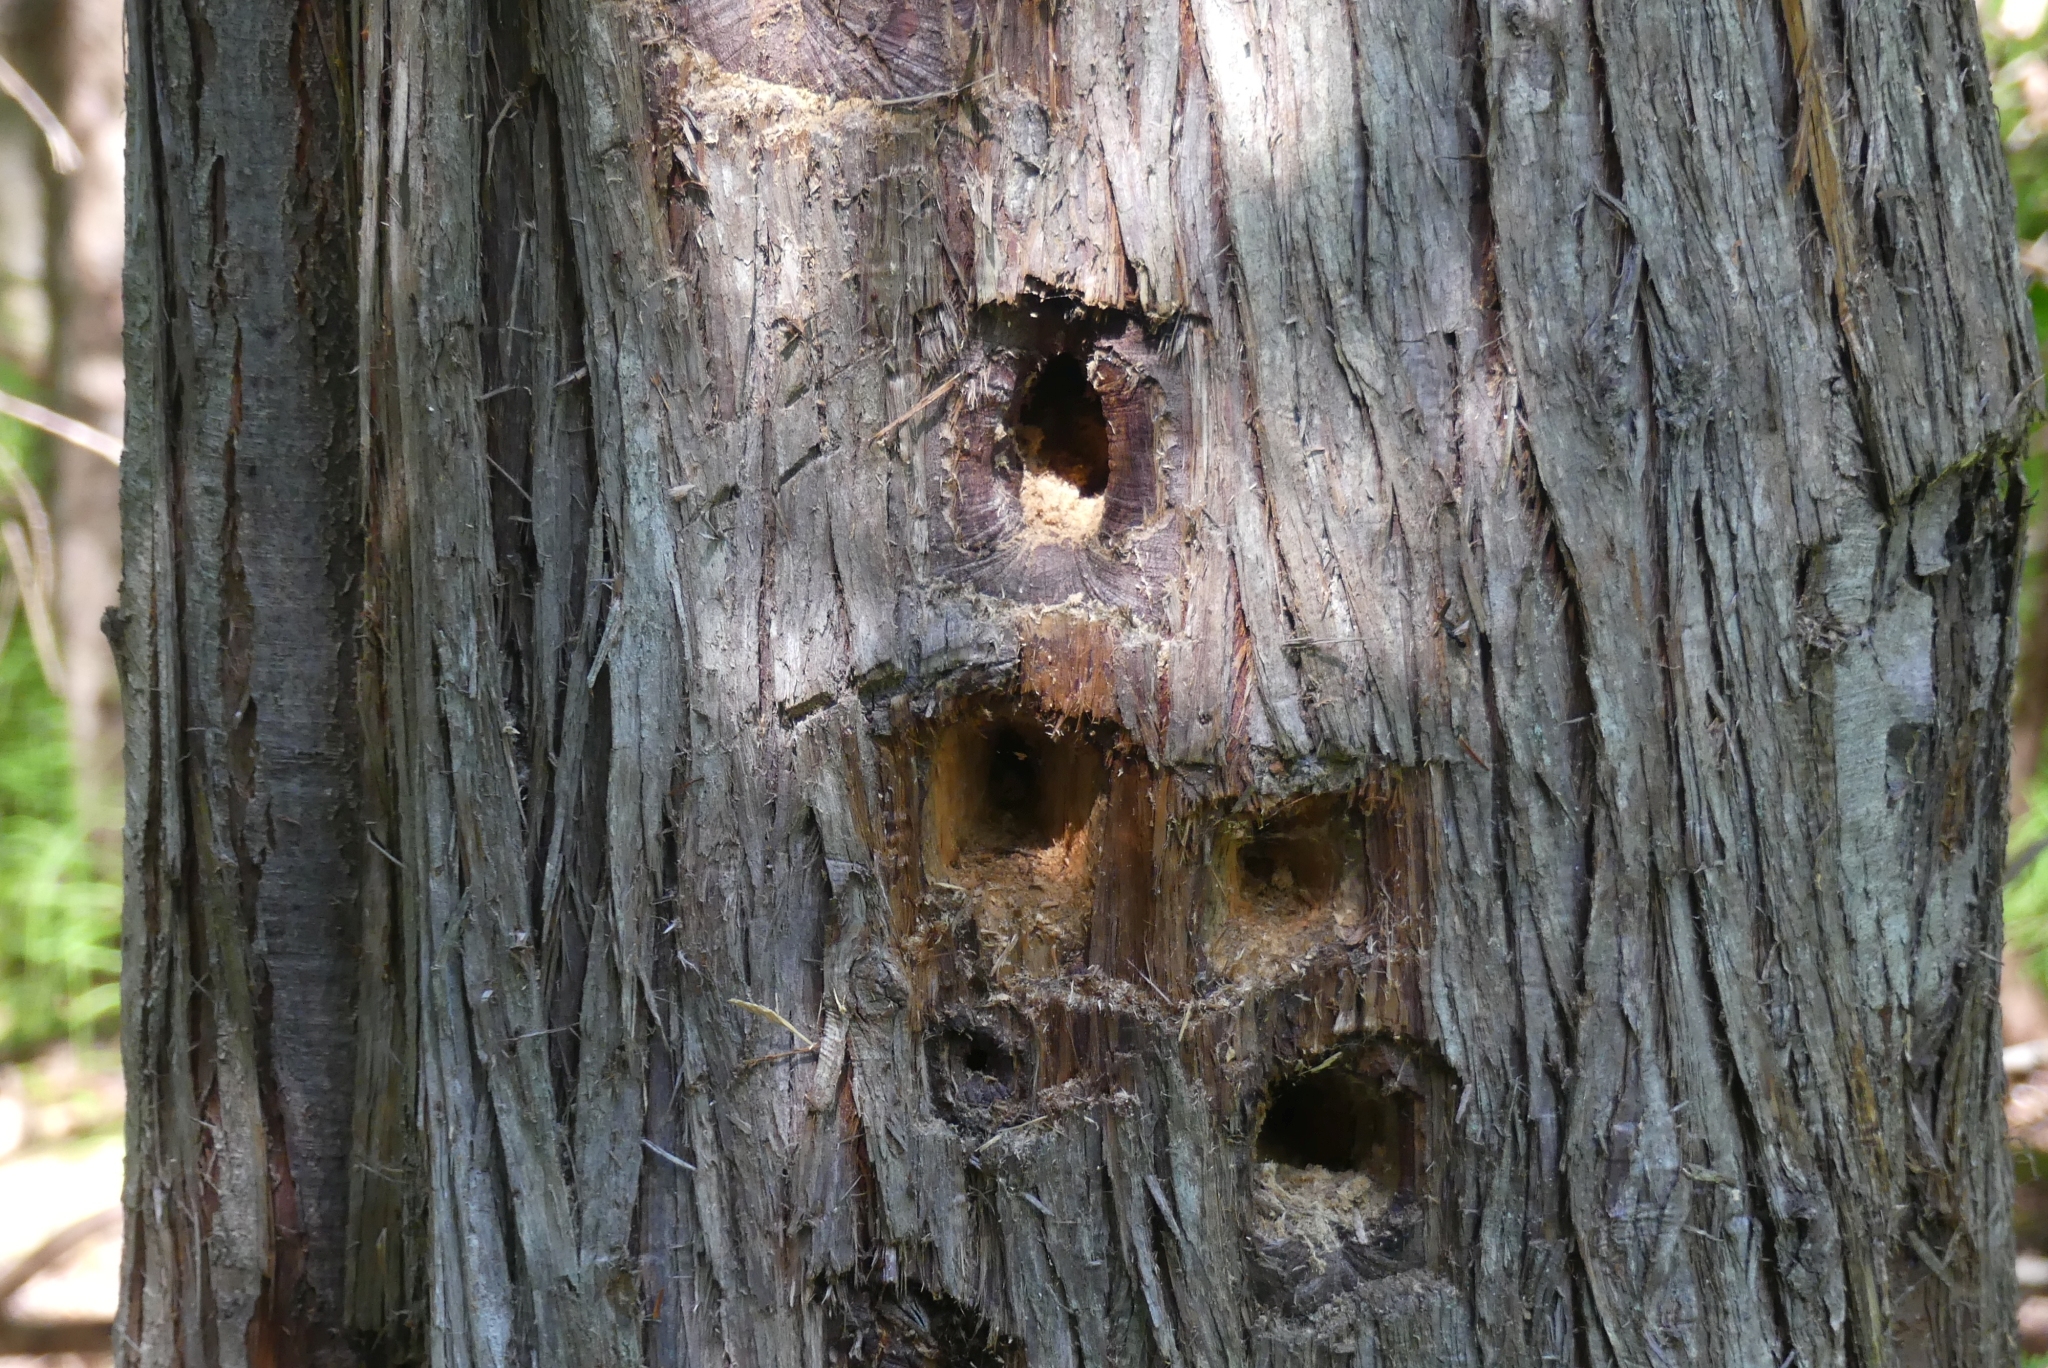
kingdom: Animalia
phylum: Chordata
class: Aves
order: Piciformes
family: Picidae
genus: Dryocopus
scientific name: Dryocopus pileatus
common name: Pileated woodpecker
